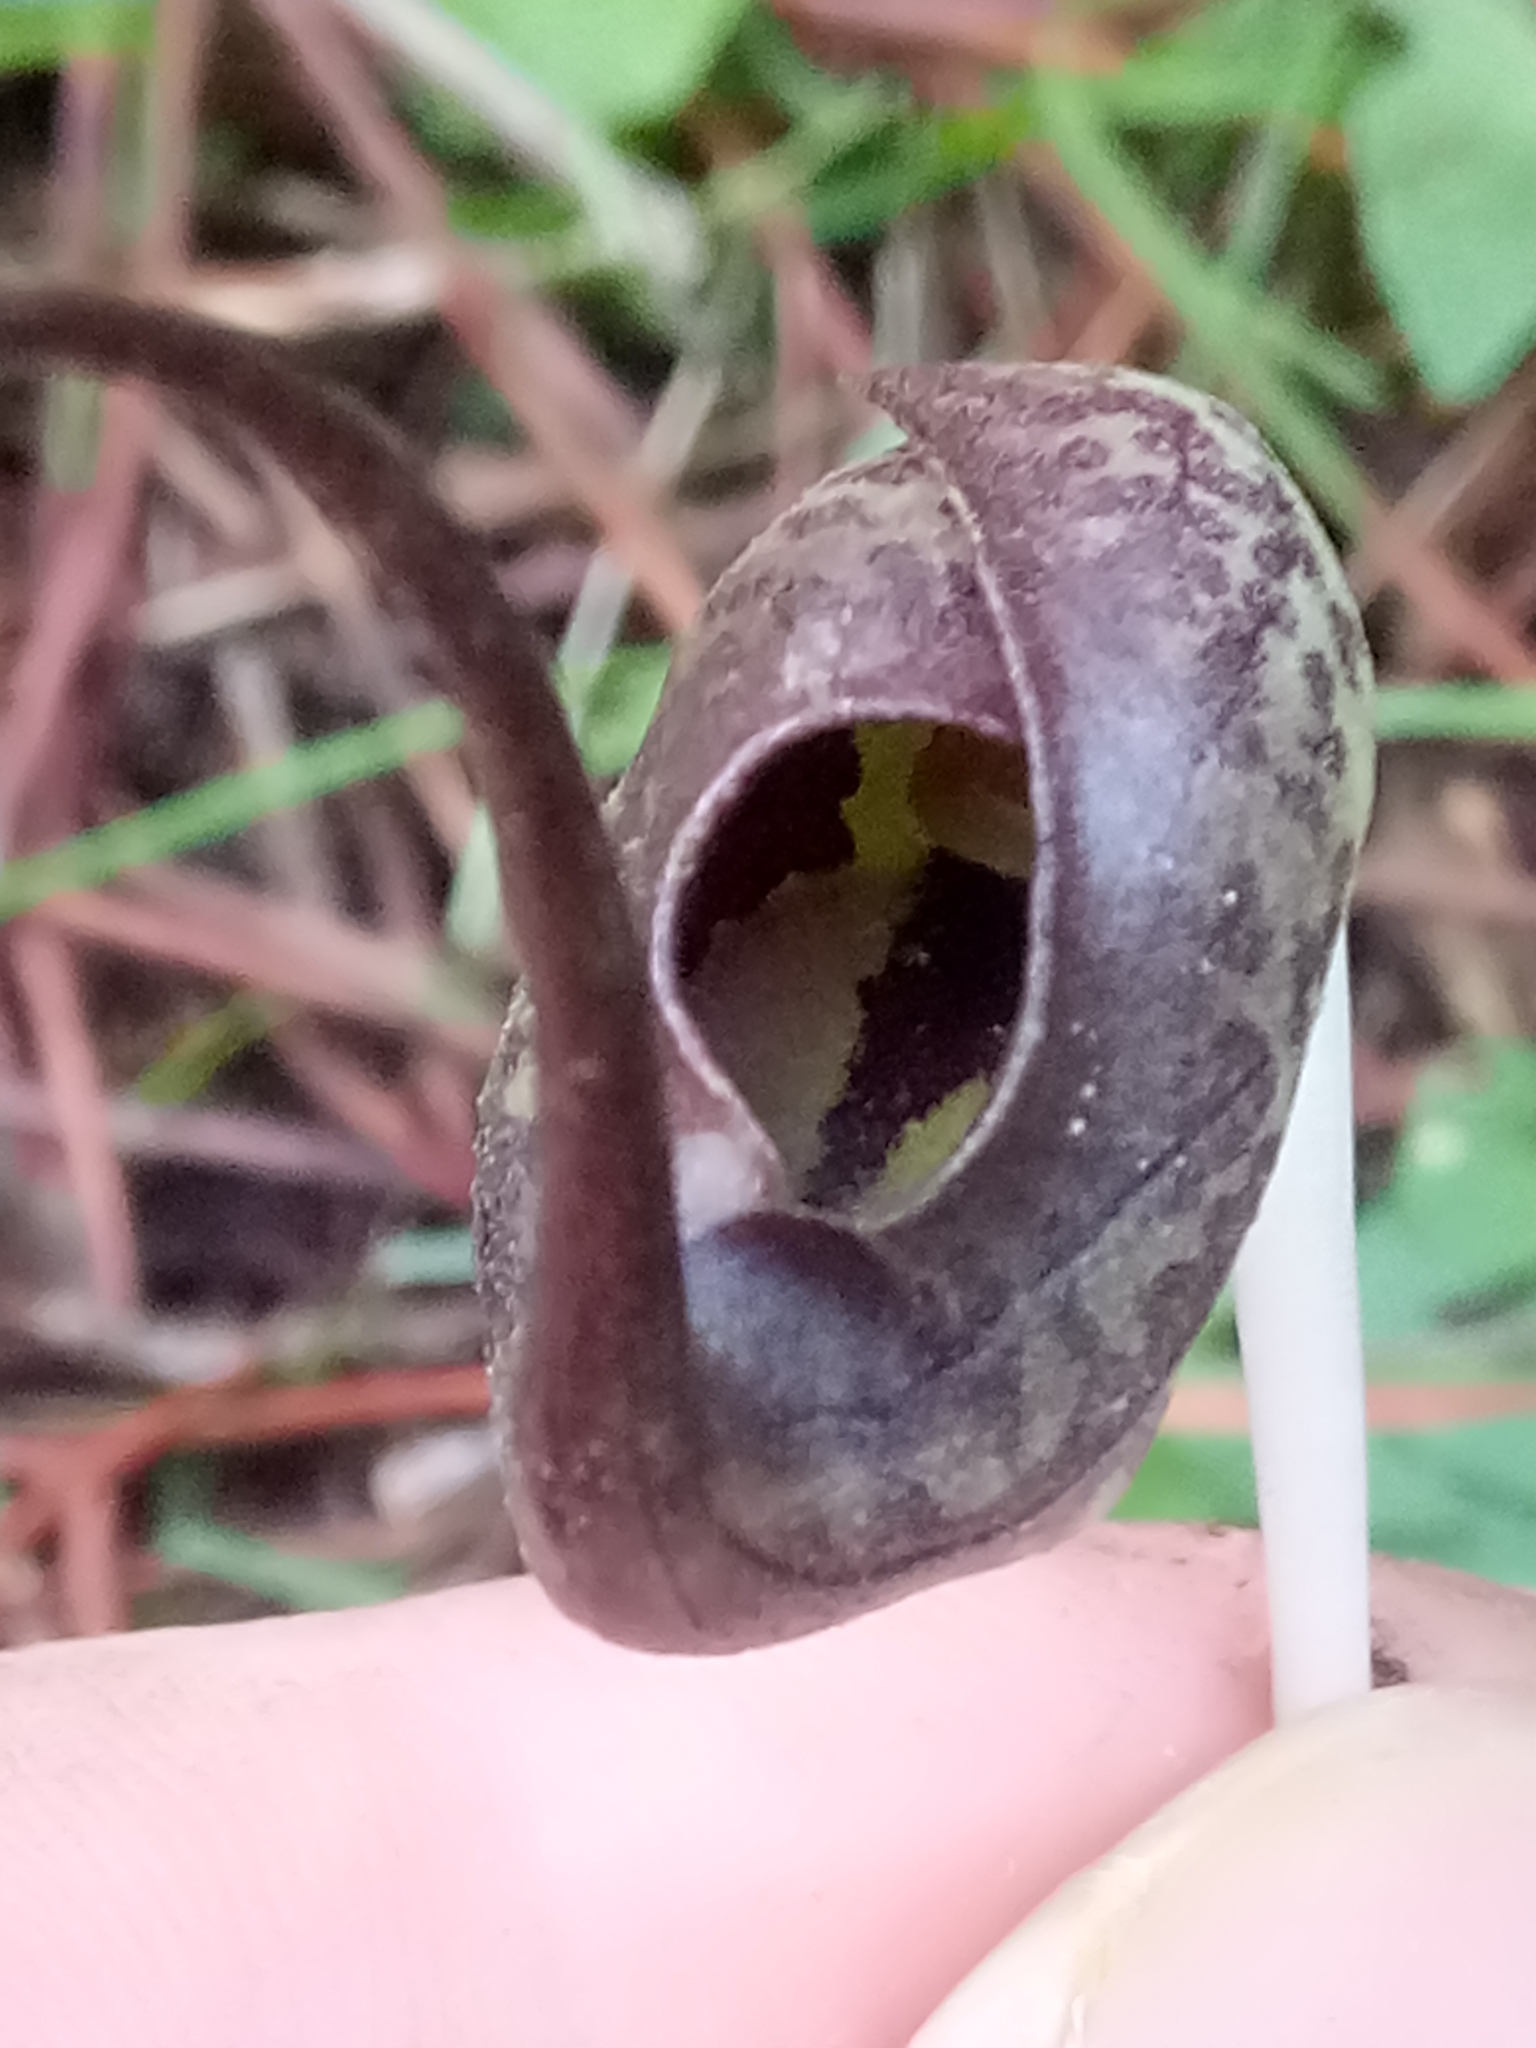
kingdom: Plantae
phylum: Tracheophyta
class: Liliopsida
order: Alismatales
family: Araceae
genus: Ambrosina
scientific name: Ambrosina bassii
